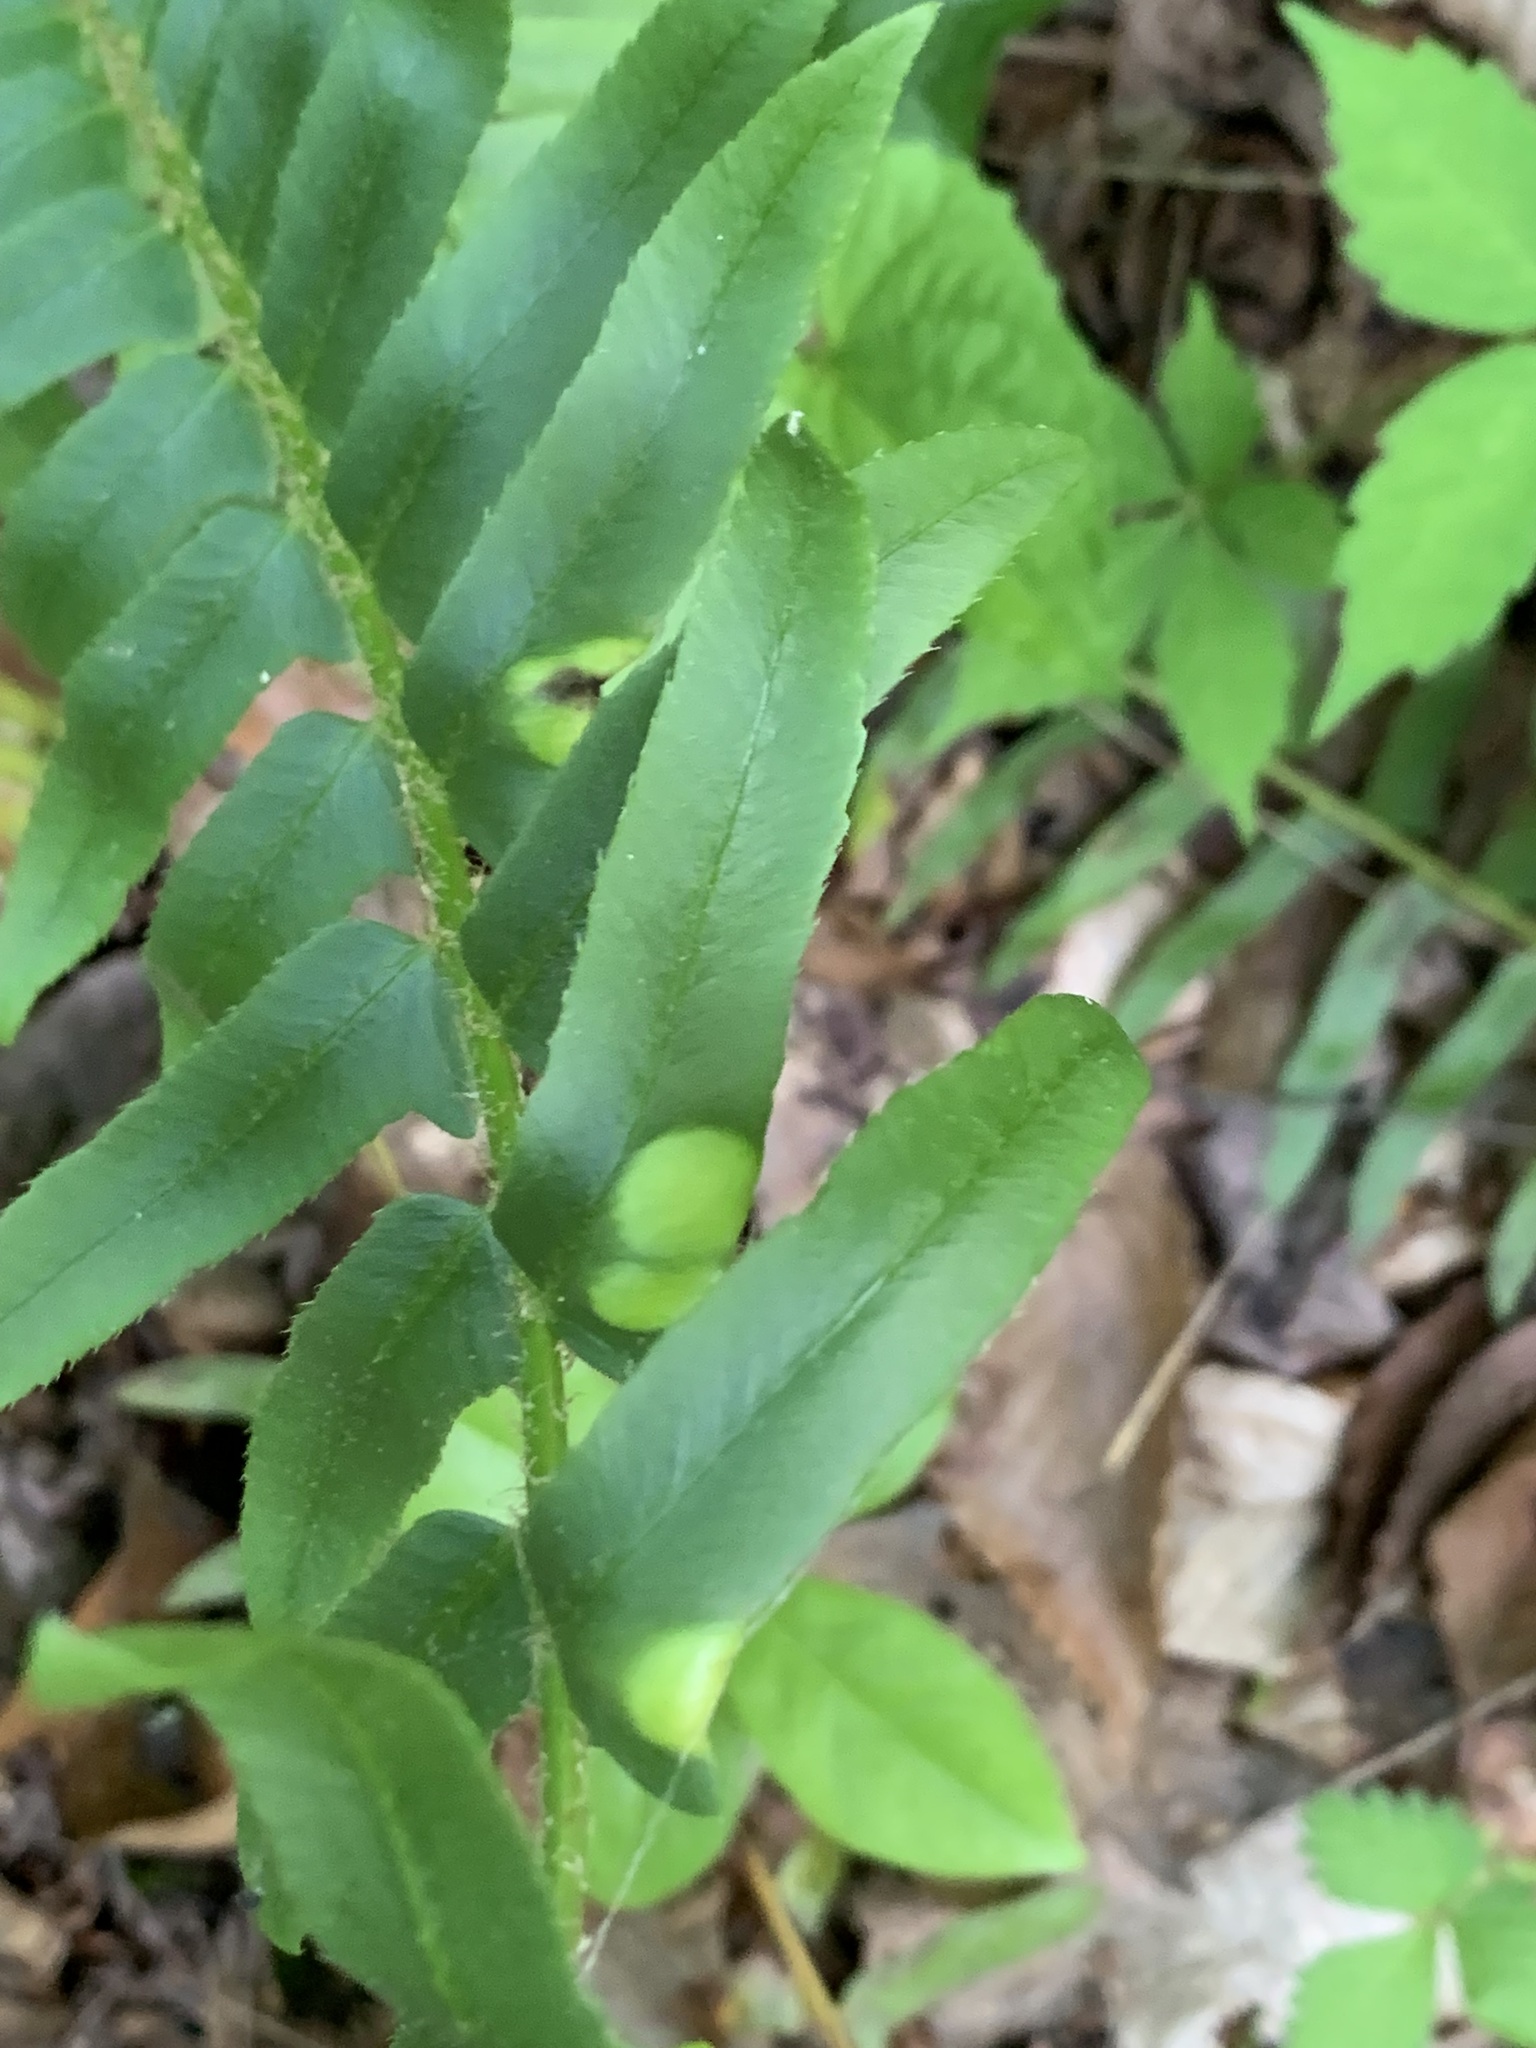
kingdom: Fungi
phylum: Ascomycota
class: Taphrinomycetes
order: Taphrinales
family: Taphrinaceae
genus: Taphrina
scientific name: Taphrina polystichi
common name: Christmas fern leaf curl
